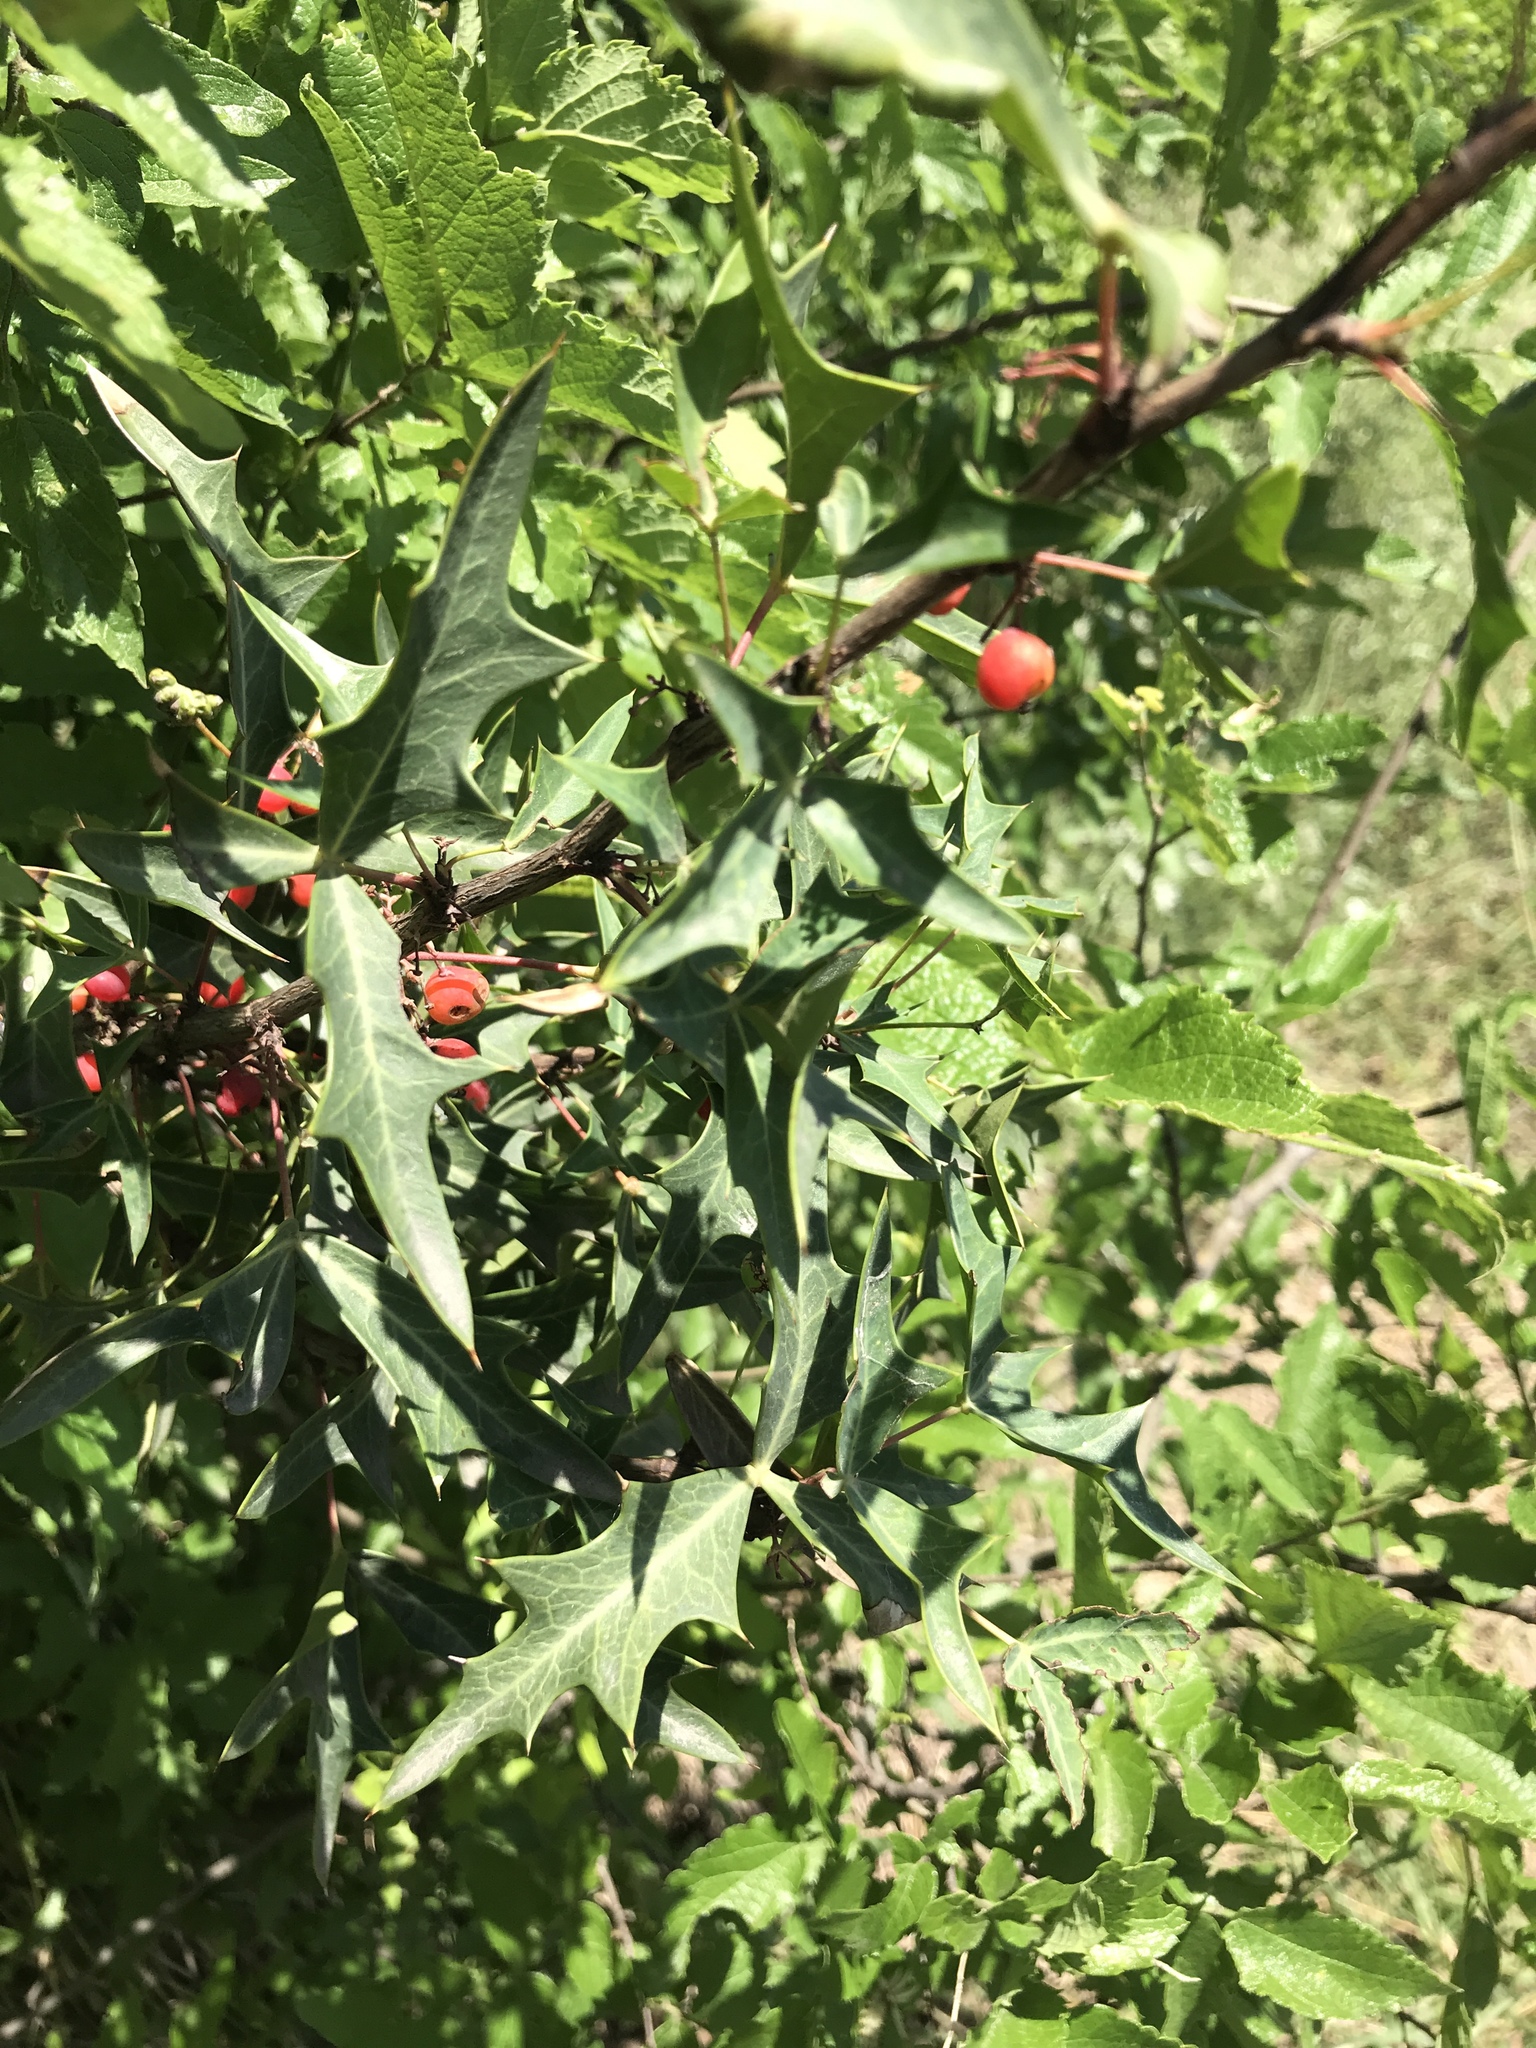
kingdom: Plantae
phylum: Tracheophyta
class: Magnoliopsida
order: Ranunculales
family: Berberidaceae
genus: Alloberberis
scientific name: Alloberberis trifoliolata
